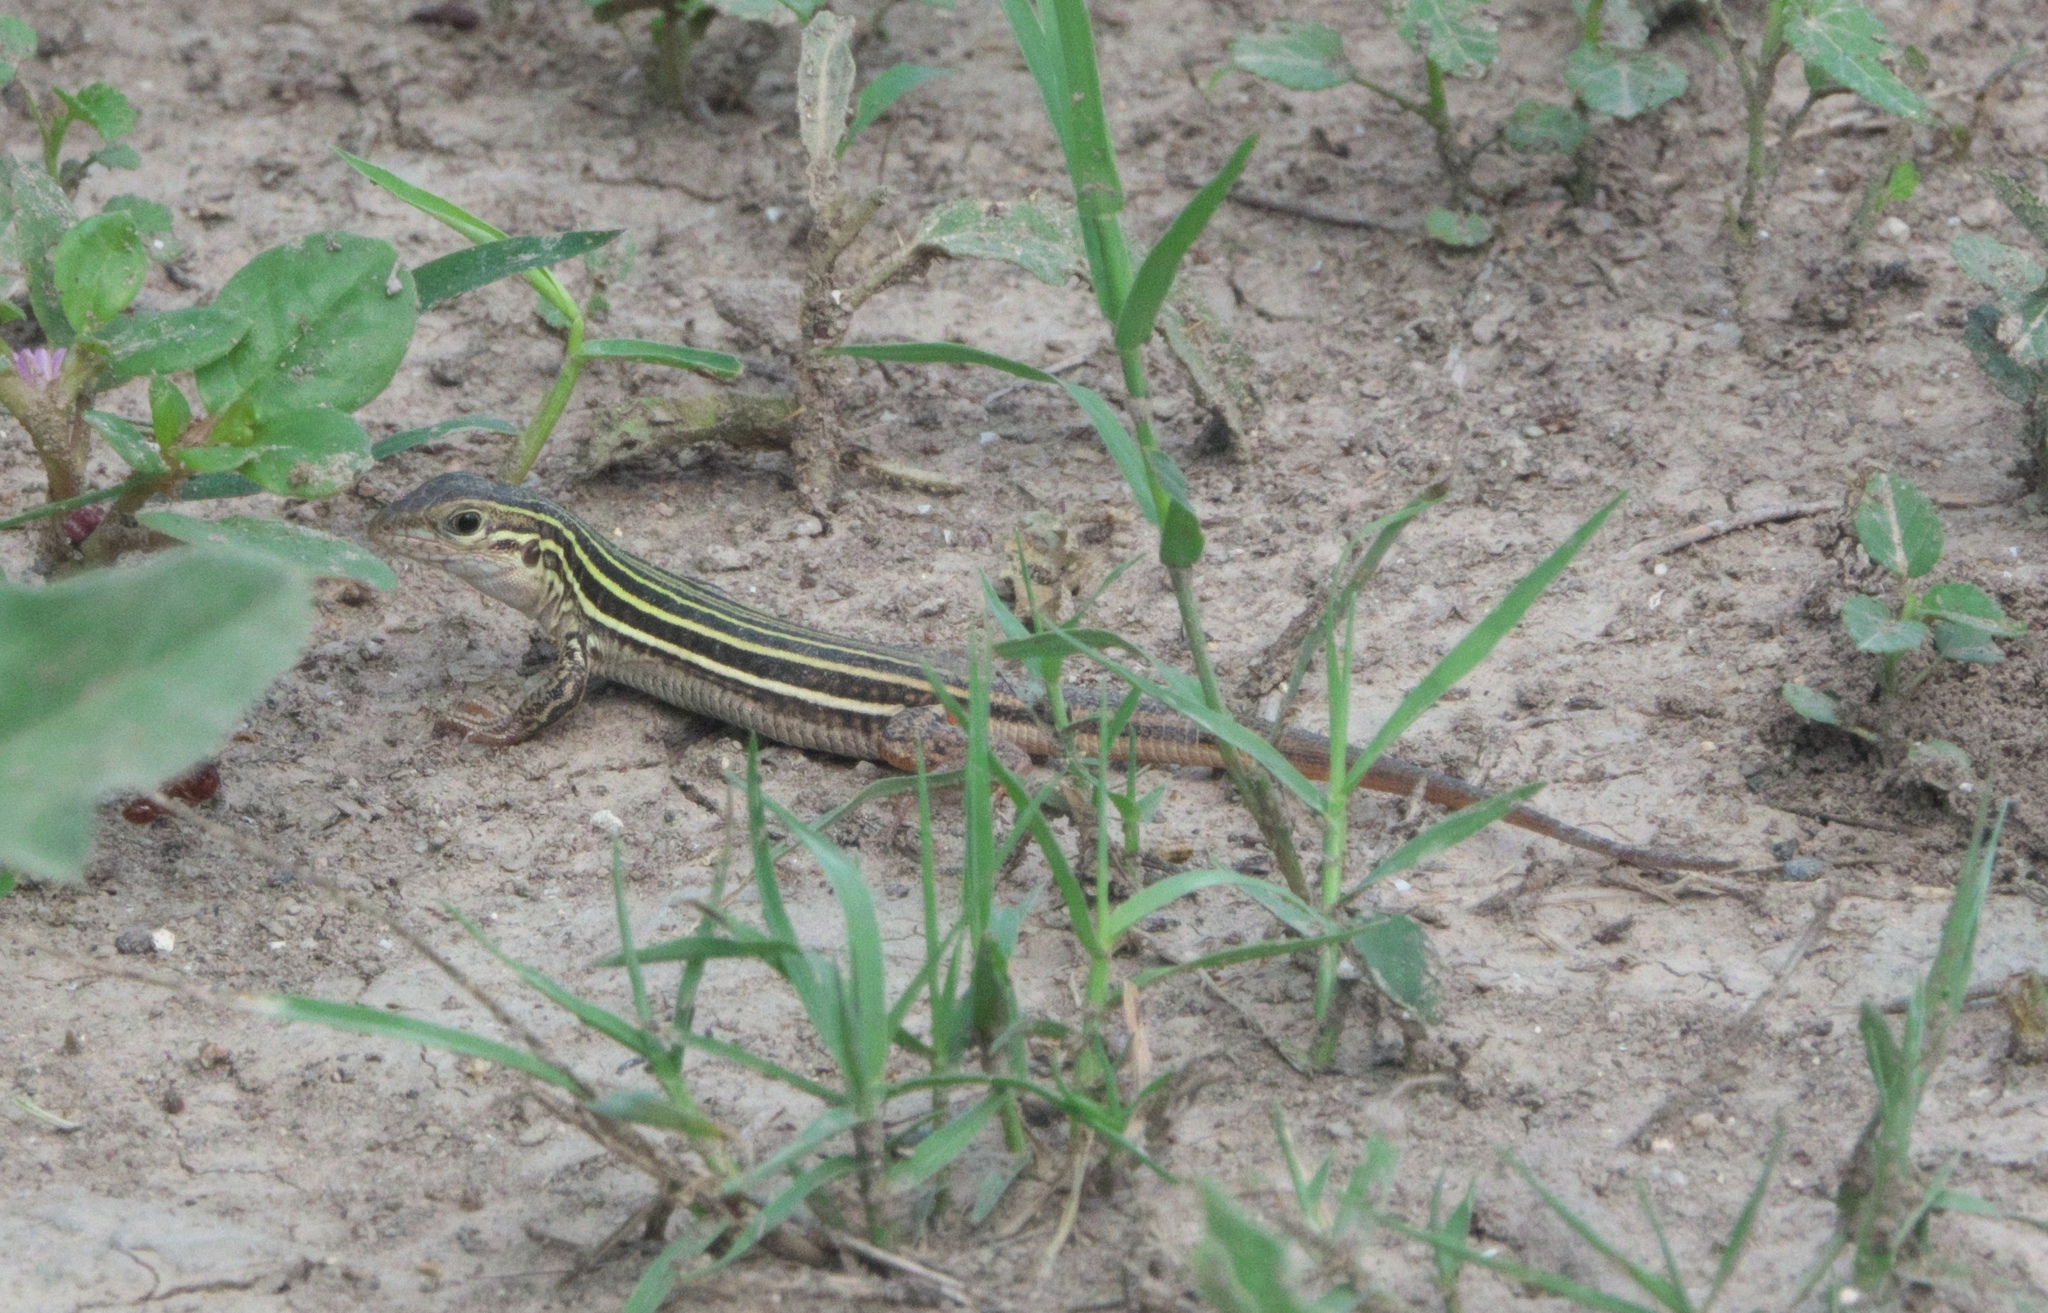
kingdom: Animalia
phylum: Chordata
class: Squamata
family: Teiidae
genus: Aspidoscelis
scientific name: Aspidoscelis gularis
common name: Eastern spotted whiptail
